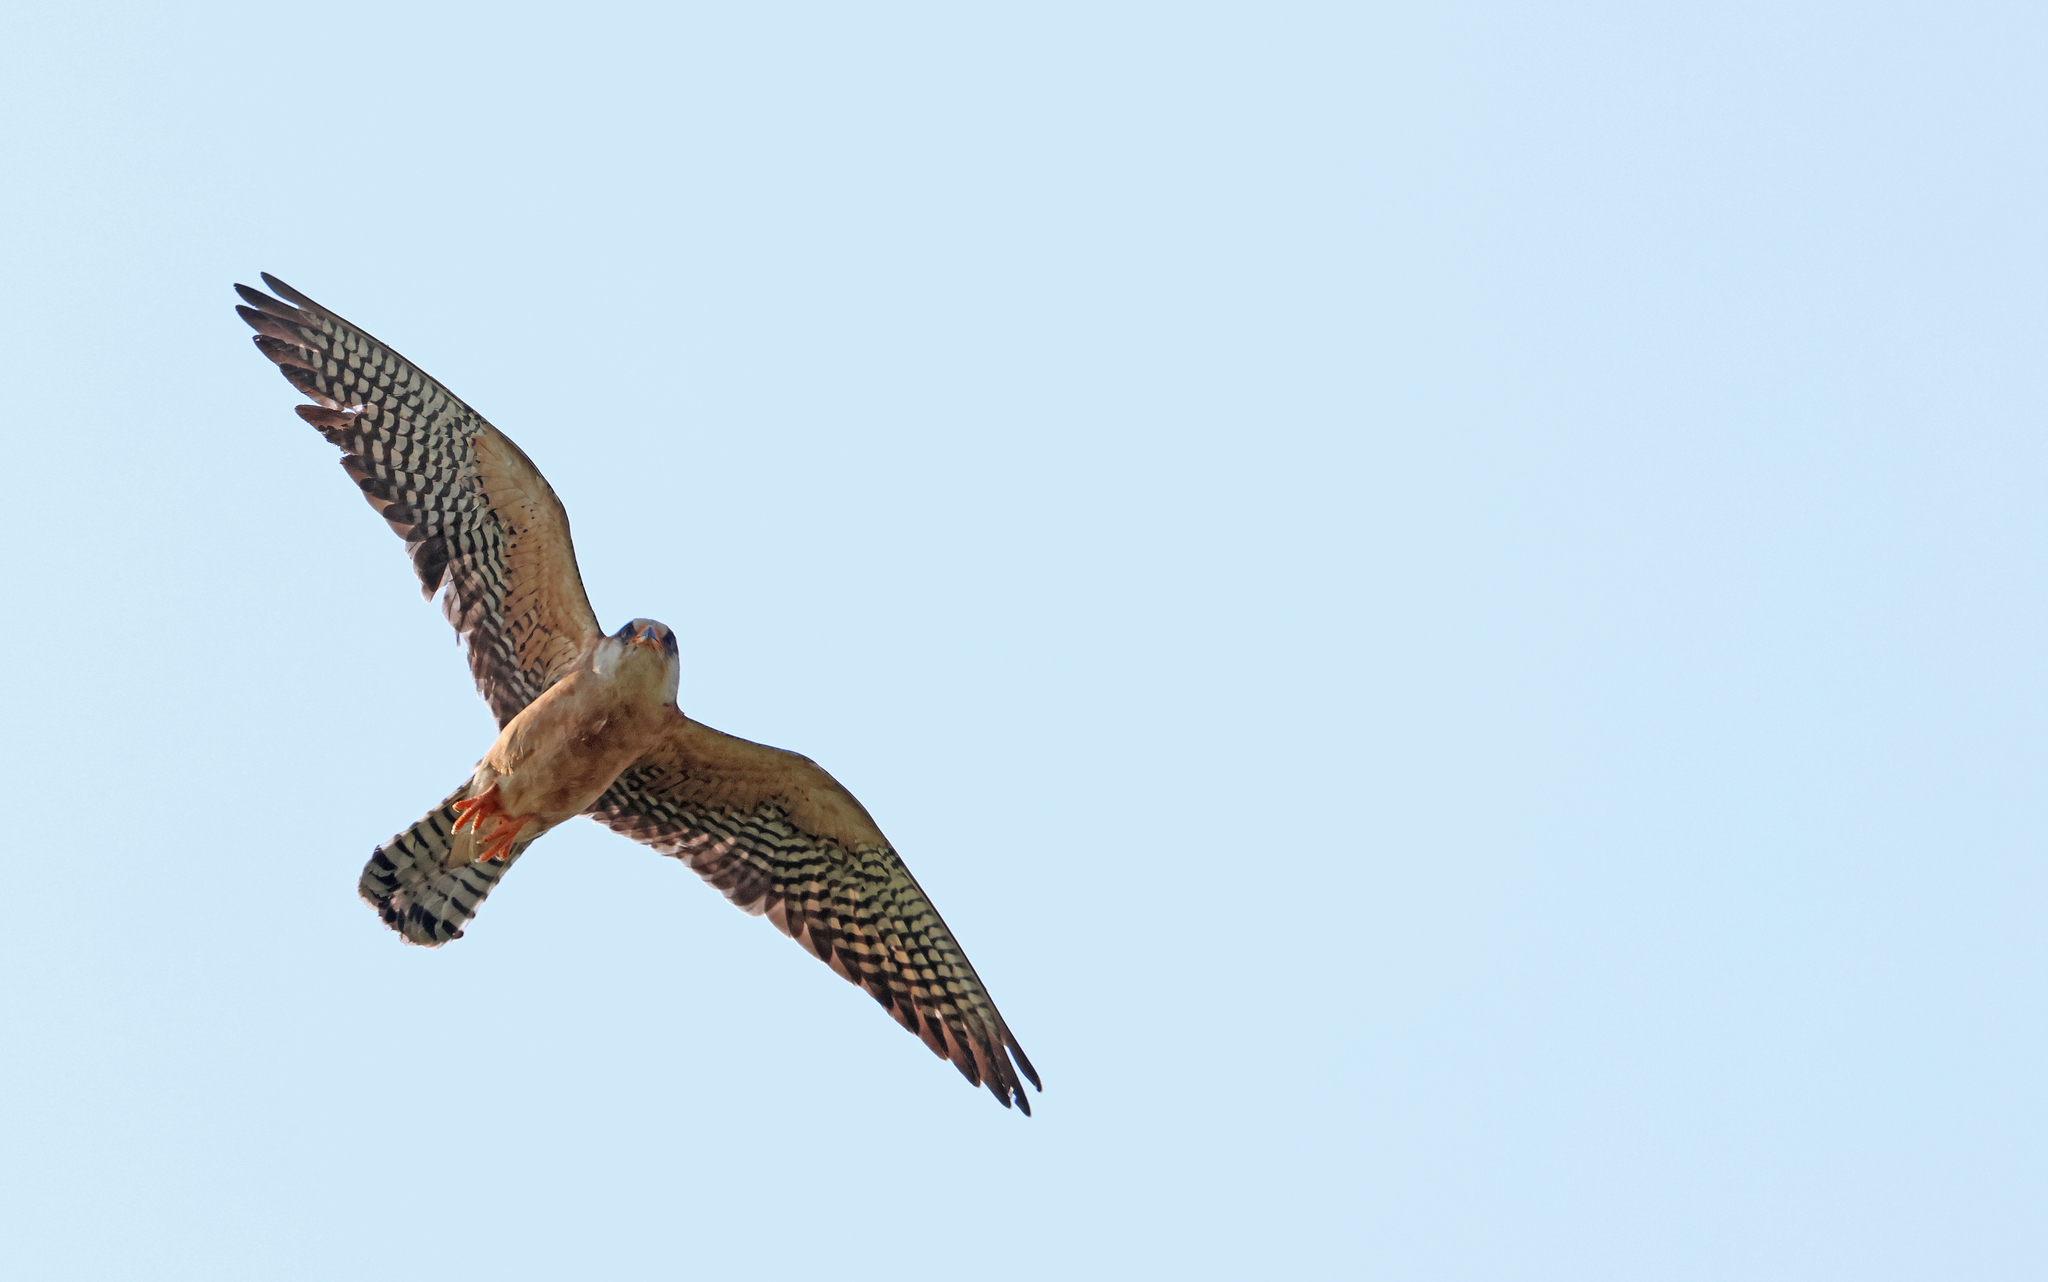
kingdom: Animalia
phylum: Chordata
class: Aves
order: Falconiformes
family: Falconidae
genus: Falco
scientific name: Falco vespertinus
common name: Red-footed falcon
